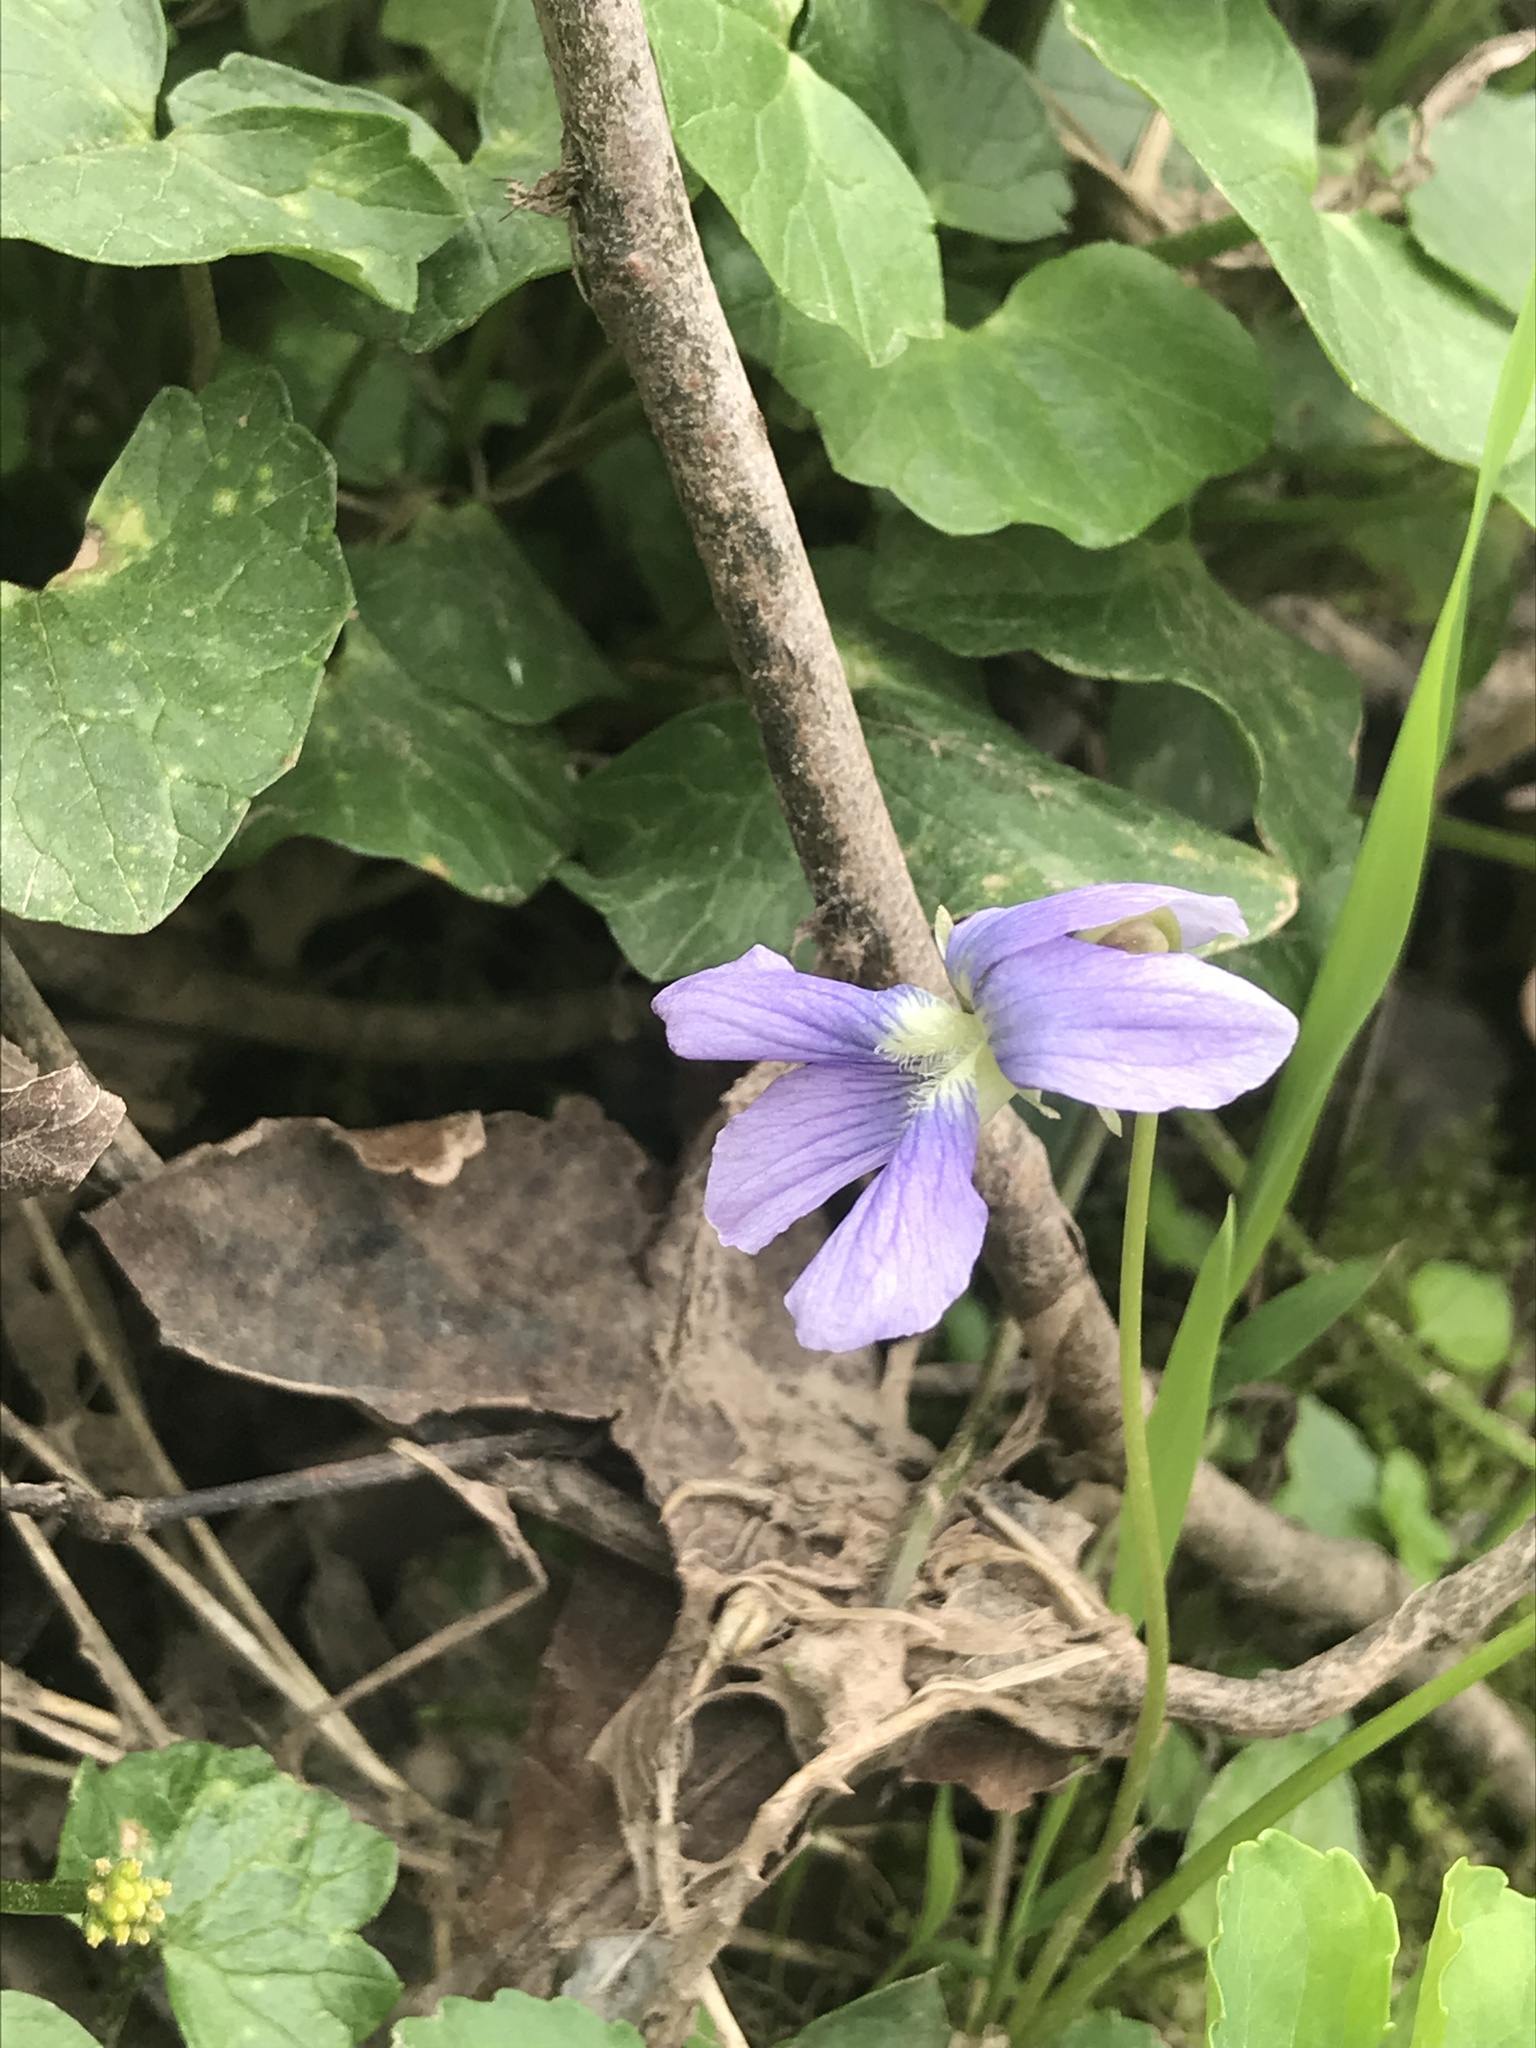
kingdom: Plantae
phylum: Tracheophyta
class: Magnoliopsida
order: Malpighiales
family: Violaceae
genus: Viola
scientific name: Viola cucullata
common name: Marsh blue violet
